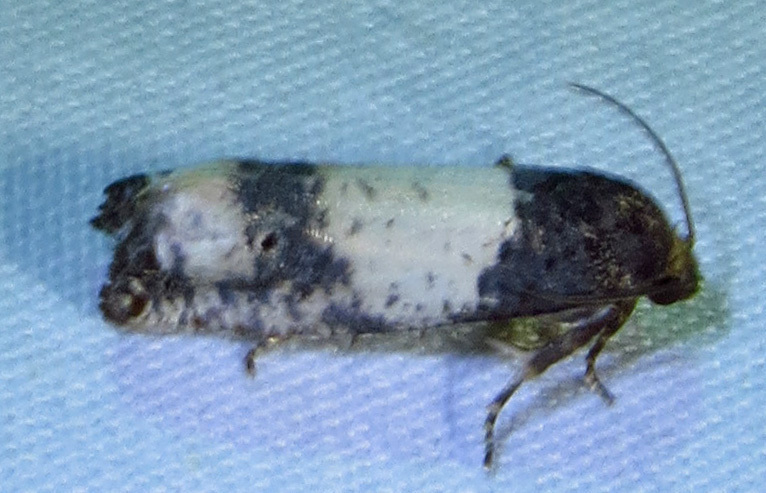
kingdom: Animalia
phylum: Arthropoda
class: Insecta
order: Lepidoptera
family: Tortricidae
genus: Epiblema
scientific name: Epiblema scudderiana
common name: Goldenrod gall moth
